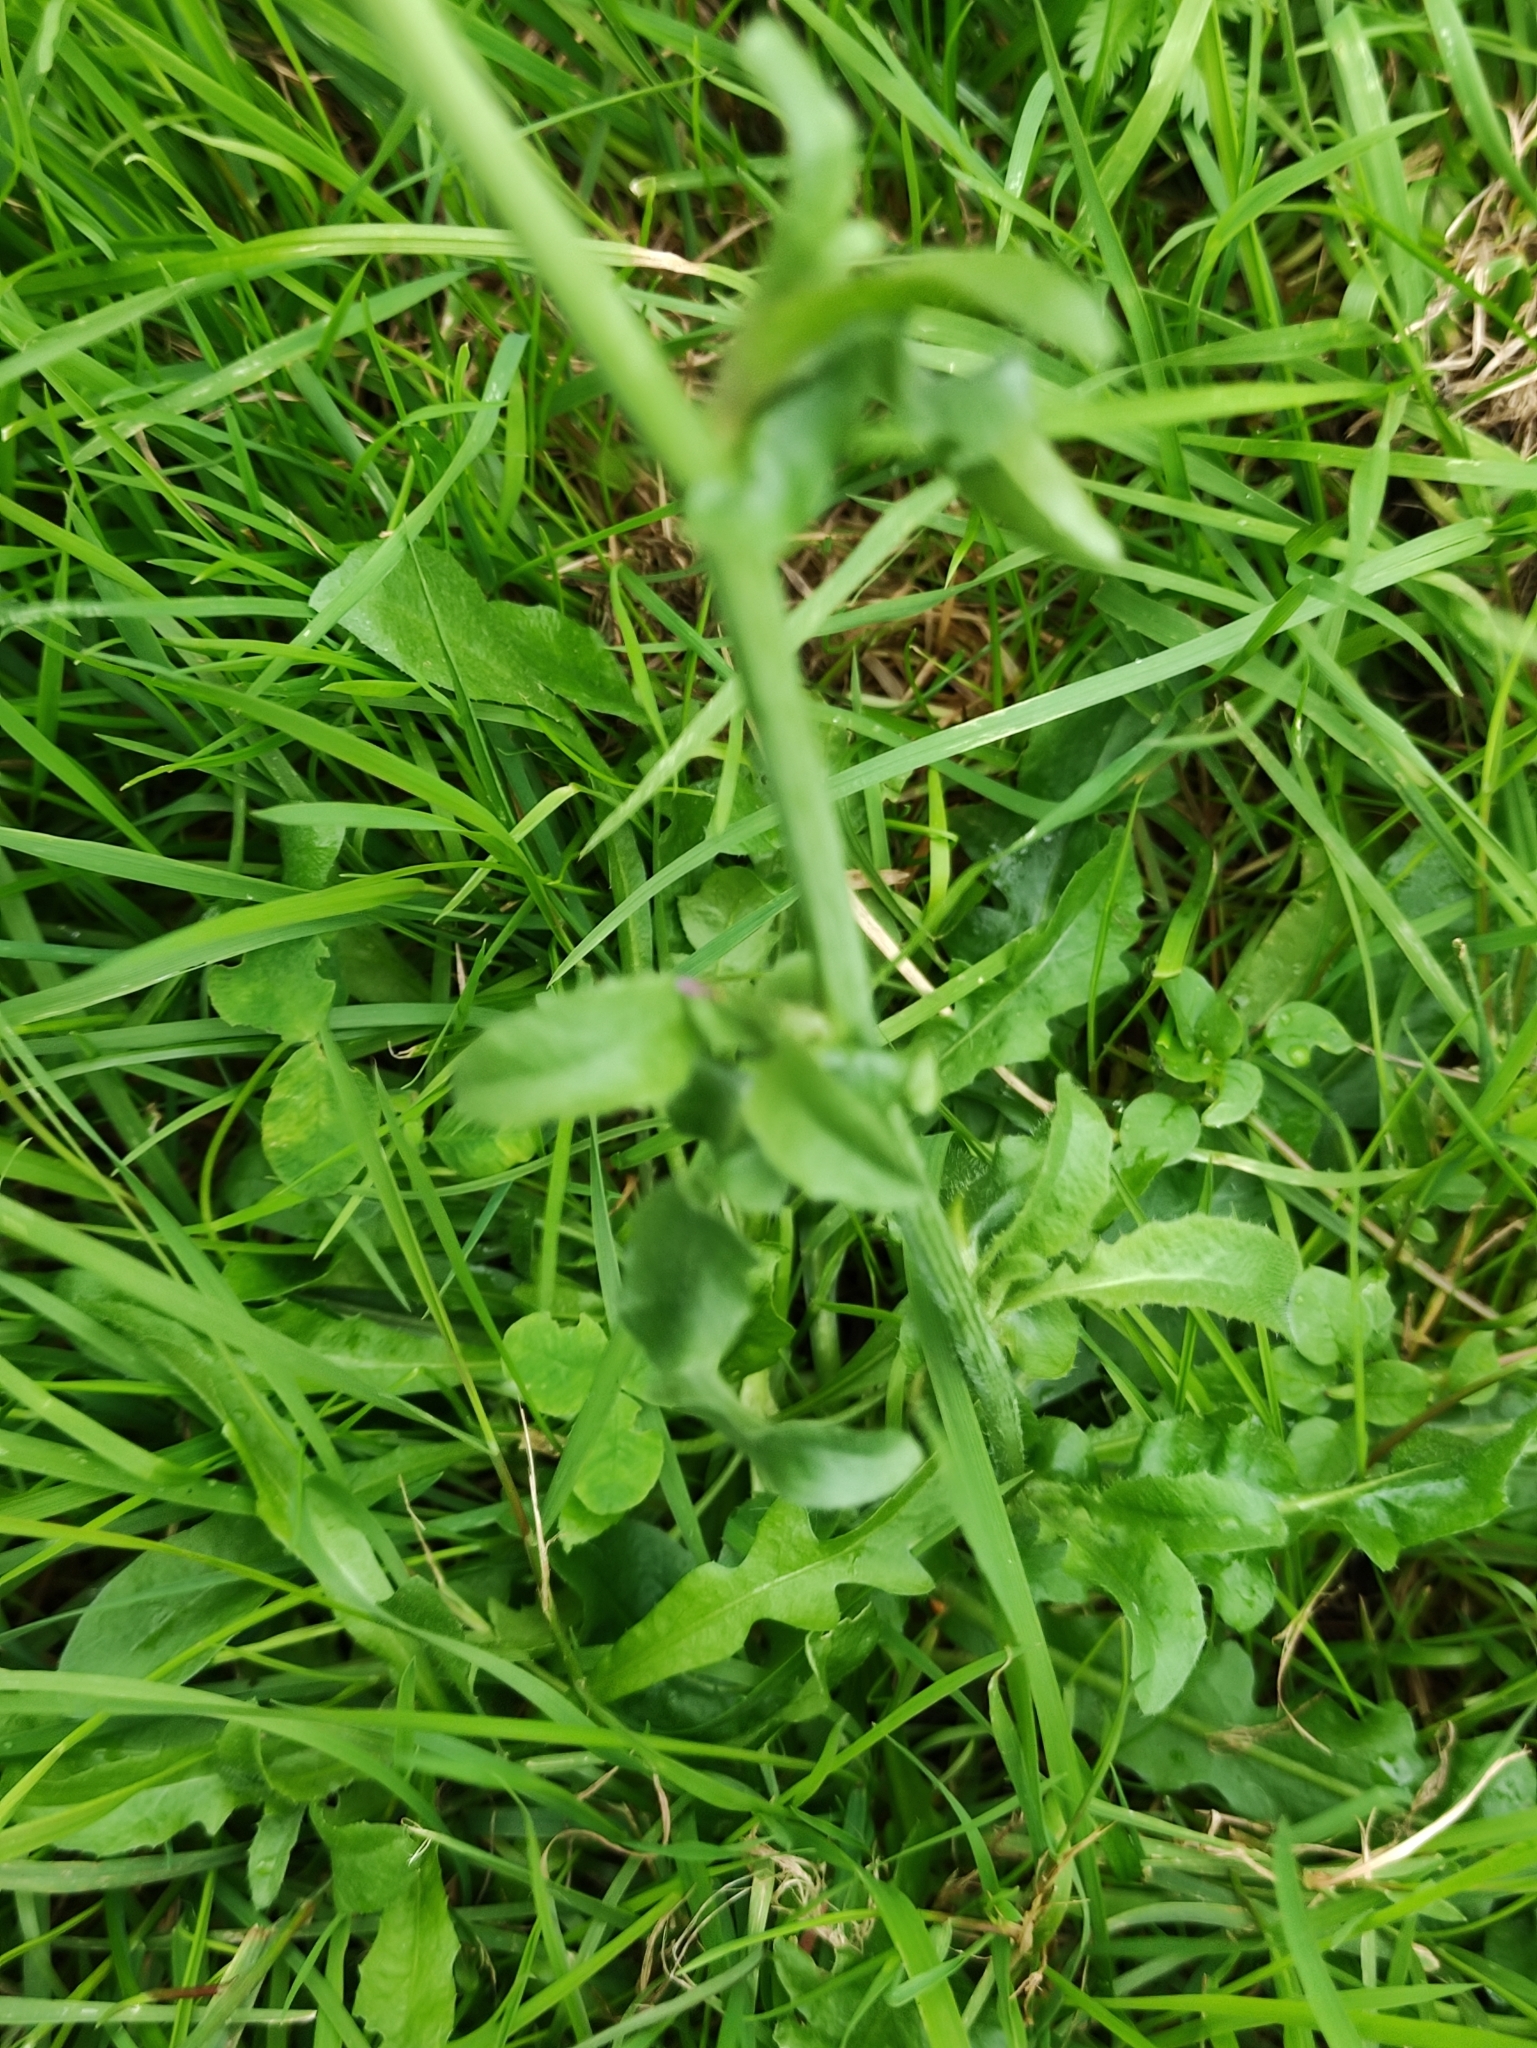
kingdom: Plantae
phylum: Tracheophyta
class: Magnoliopsida
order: Brassicales
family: Brassicaceae
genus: Capsella
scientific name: Capsella bursa-pastoris
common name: Shepherd's purse
